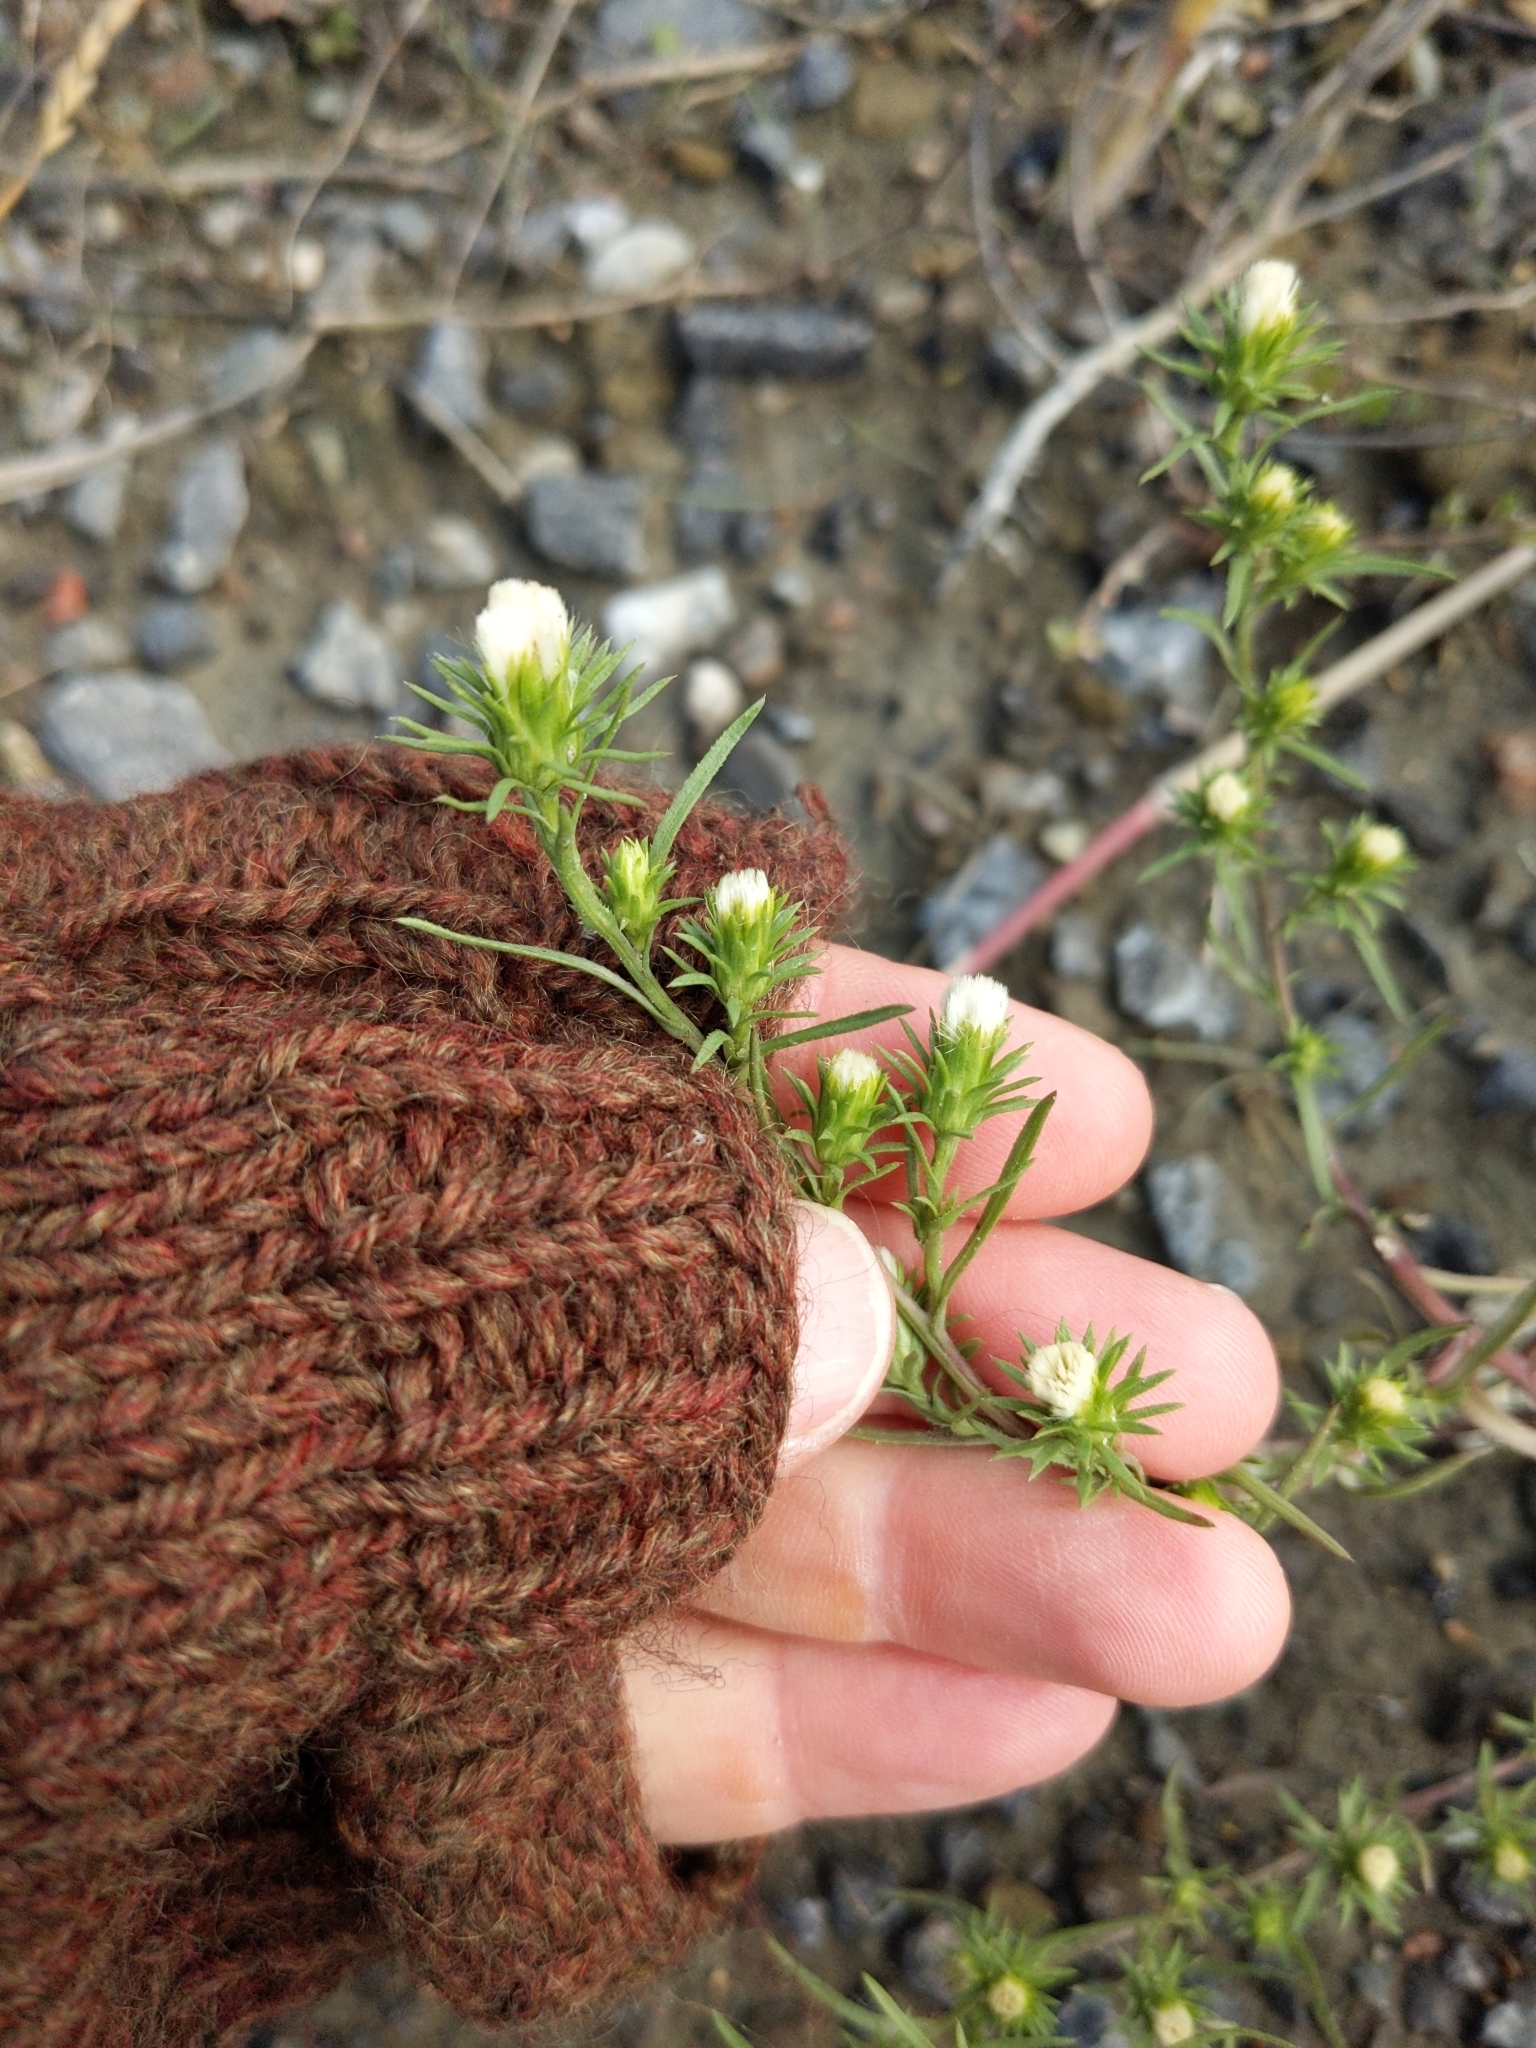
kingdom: Plantae
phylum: Tracheophyta
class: Magnoliopsida
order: Asterales
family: Asteraceae
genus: Symphyotrichum
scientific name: Symphyotrichum ciliatum
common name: Rayless annual aster
